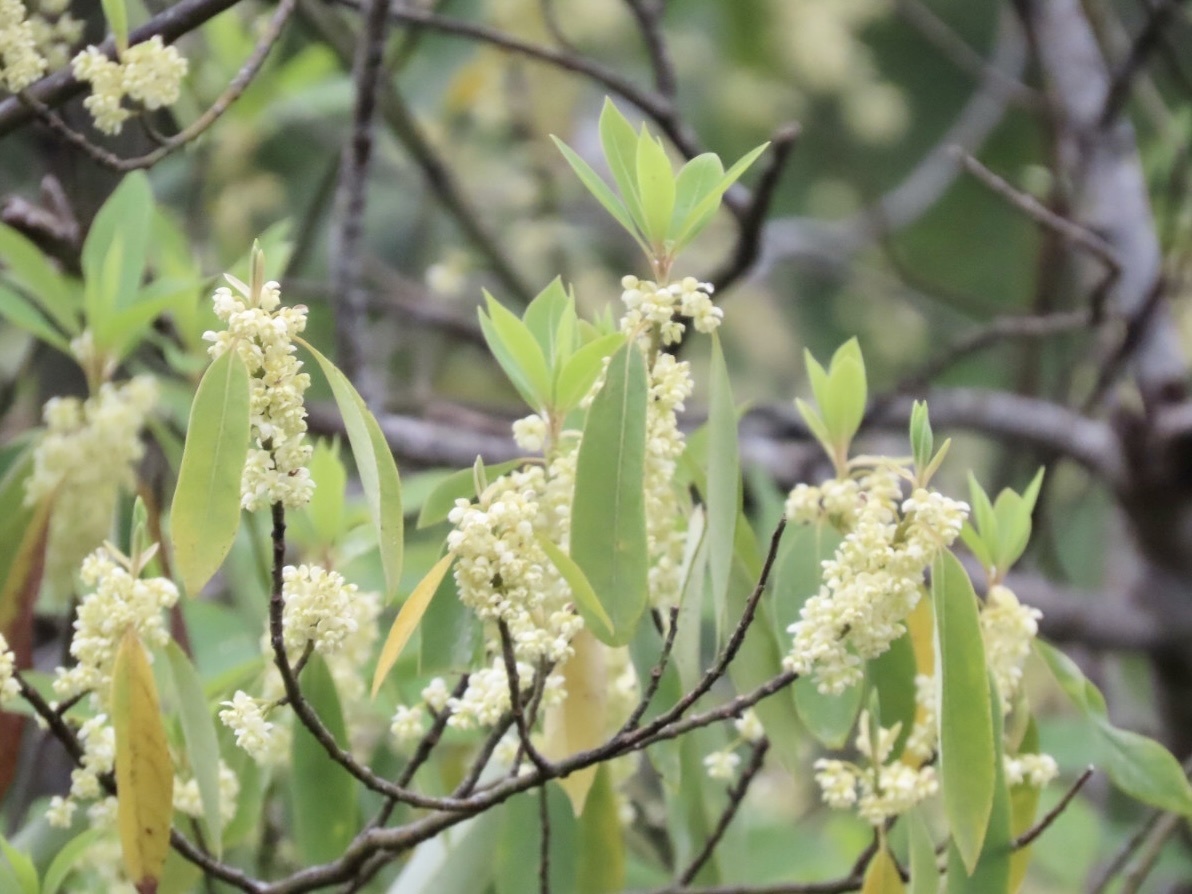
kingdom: Plantae
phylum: Tracheophyta
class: Magnoliopsida
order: Laurales
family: Lauraceae
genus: Litsea
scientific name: Litsea cubeba
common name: Mountain-pepper
